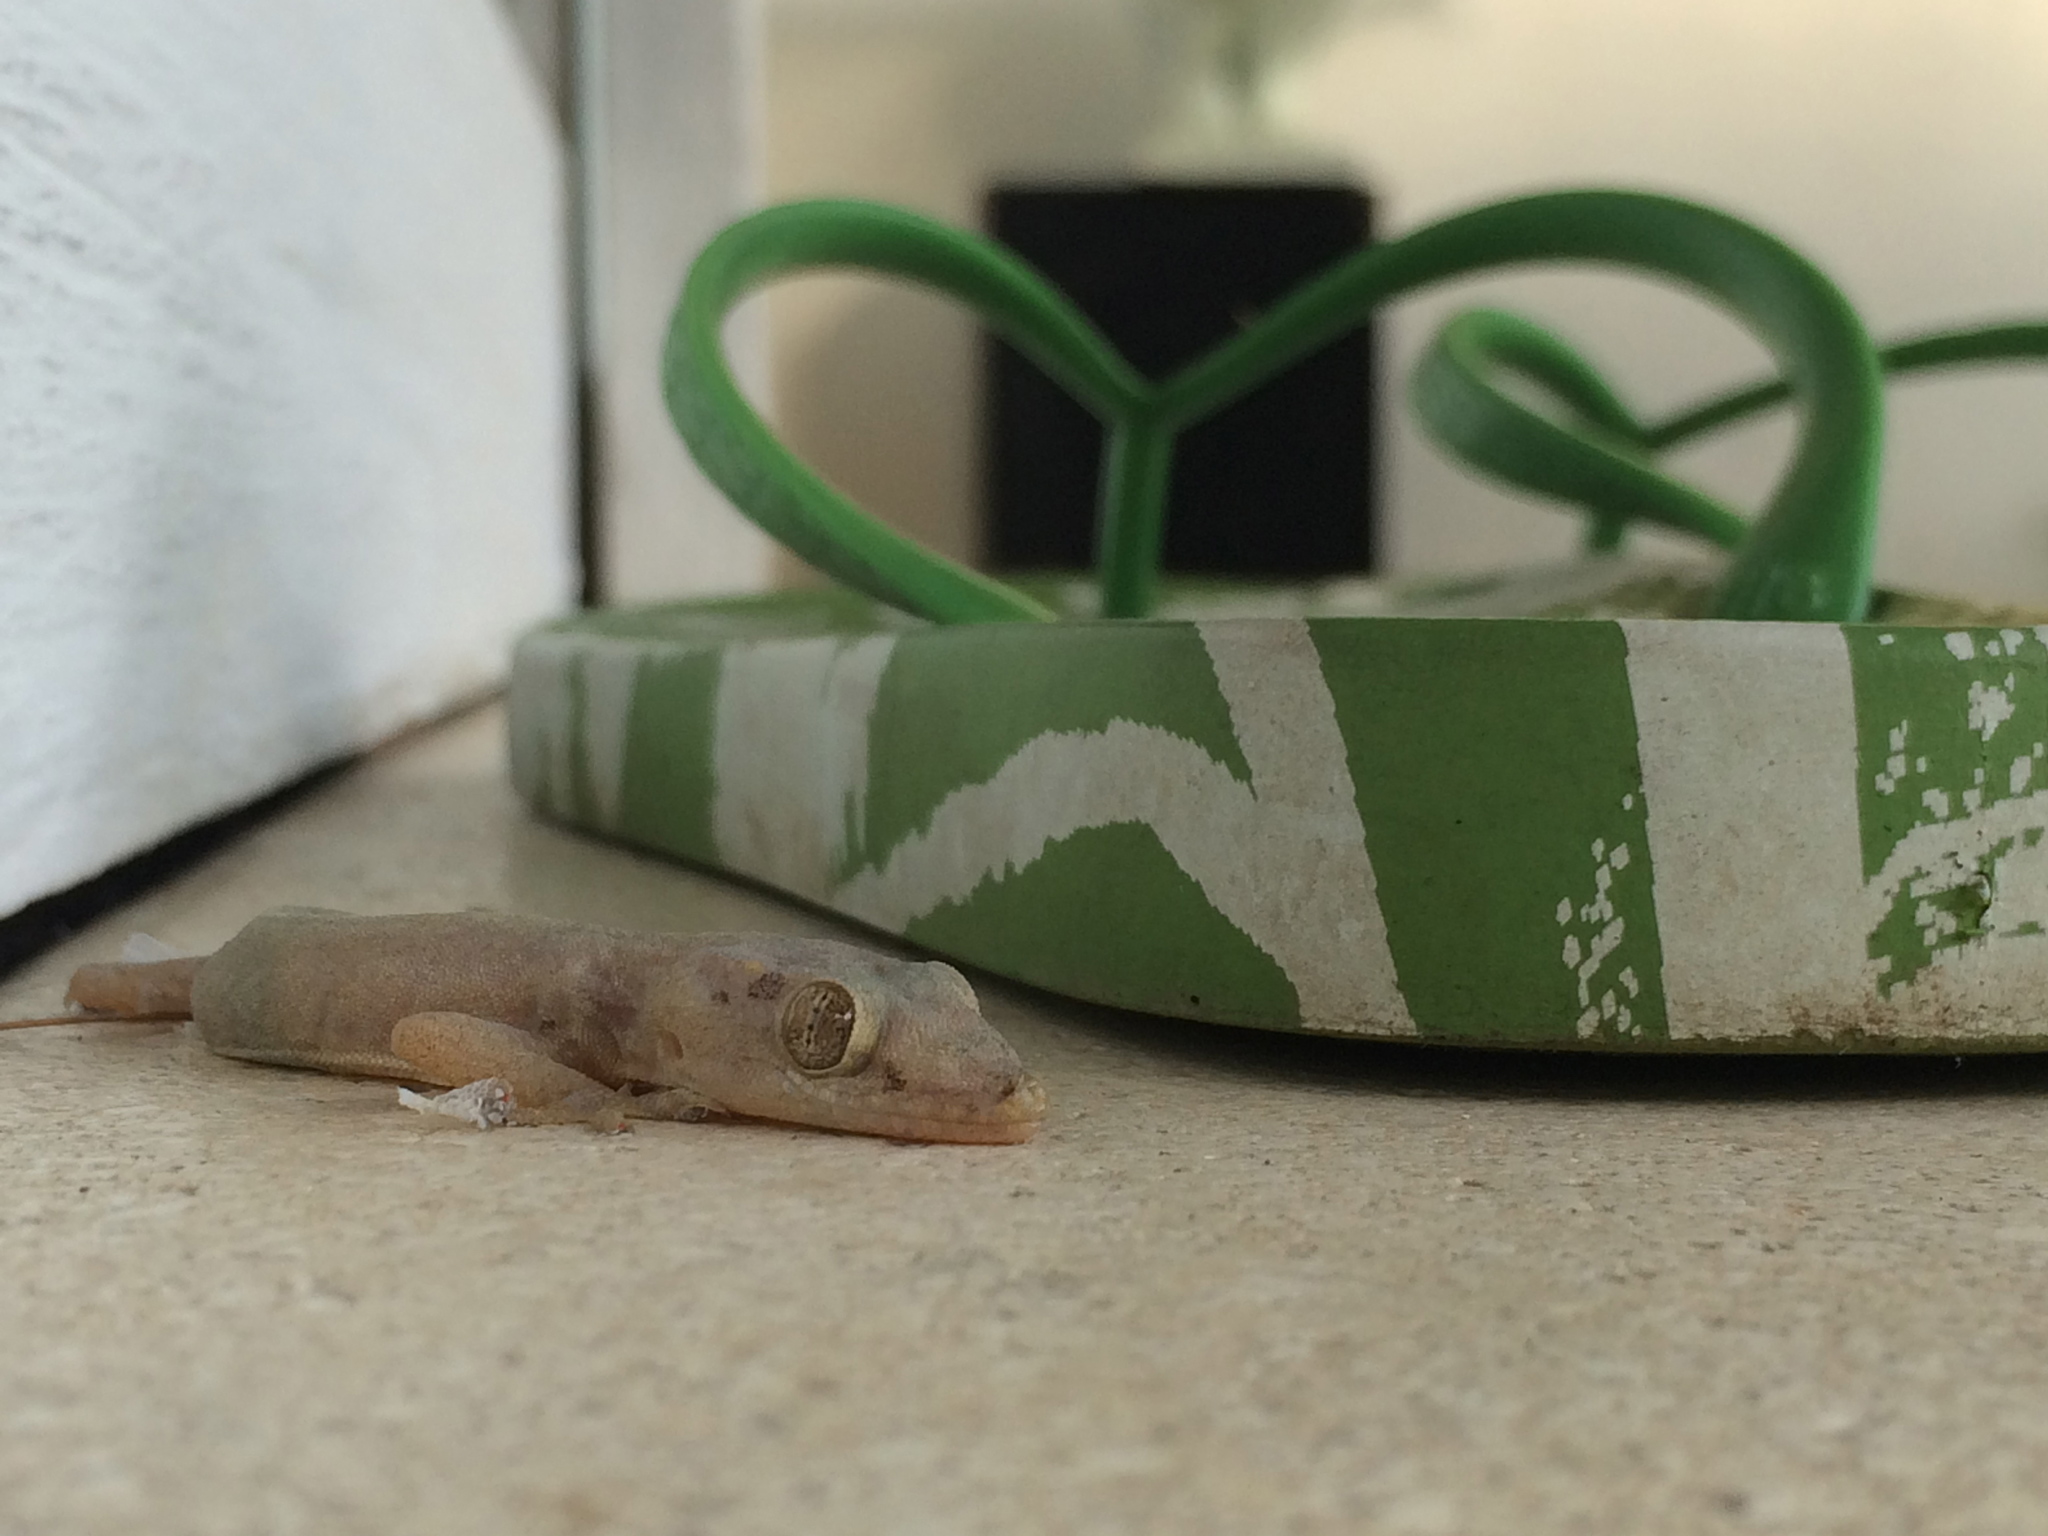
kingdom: Animalia
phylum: Chordata
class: Squamata
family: Gekkonidae
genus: Hemidactylus
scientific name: Hemidactylus frenatus
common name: Common house gecko
